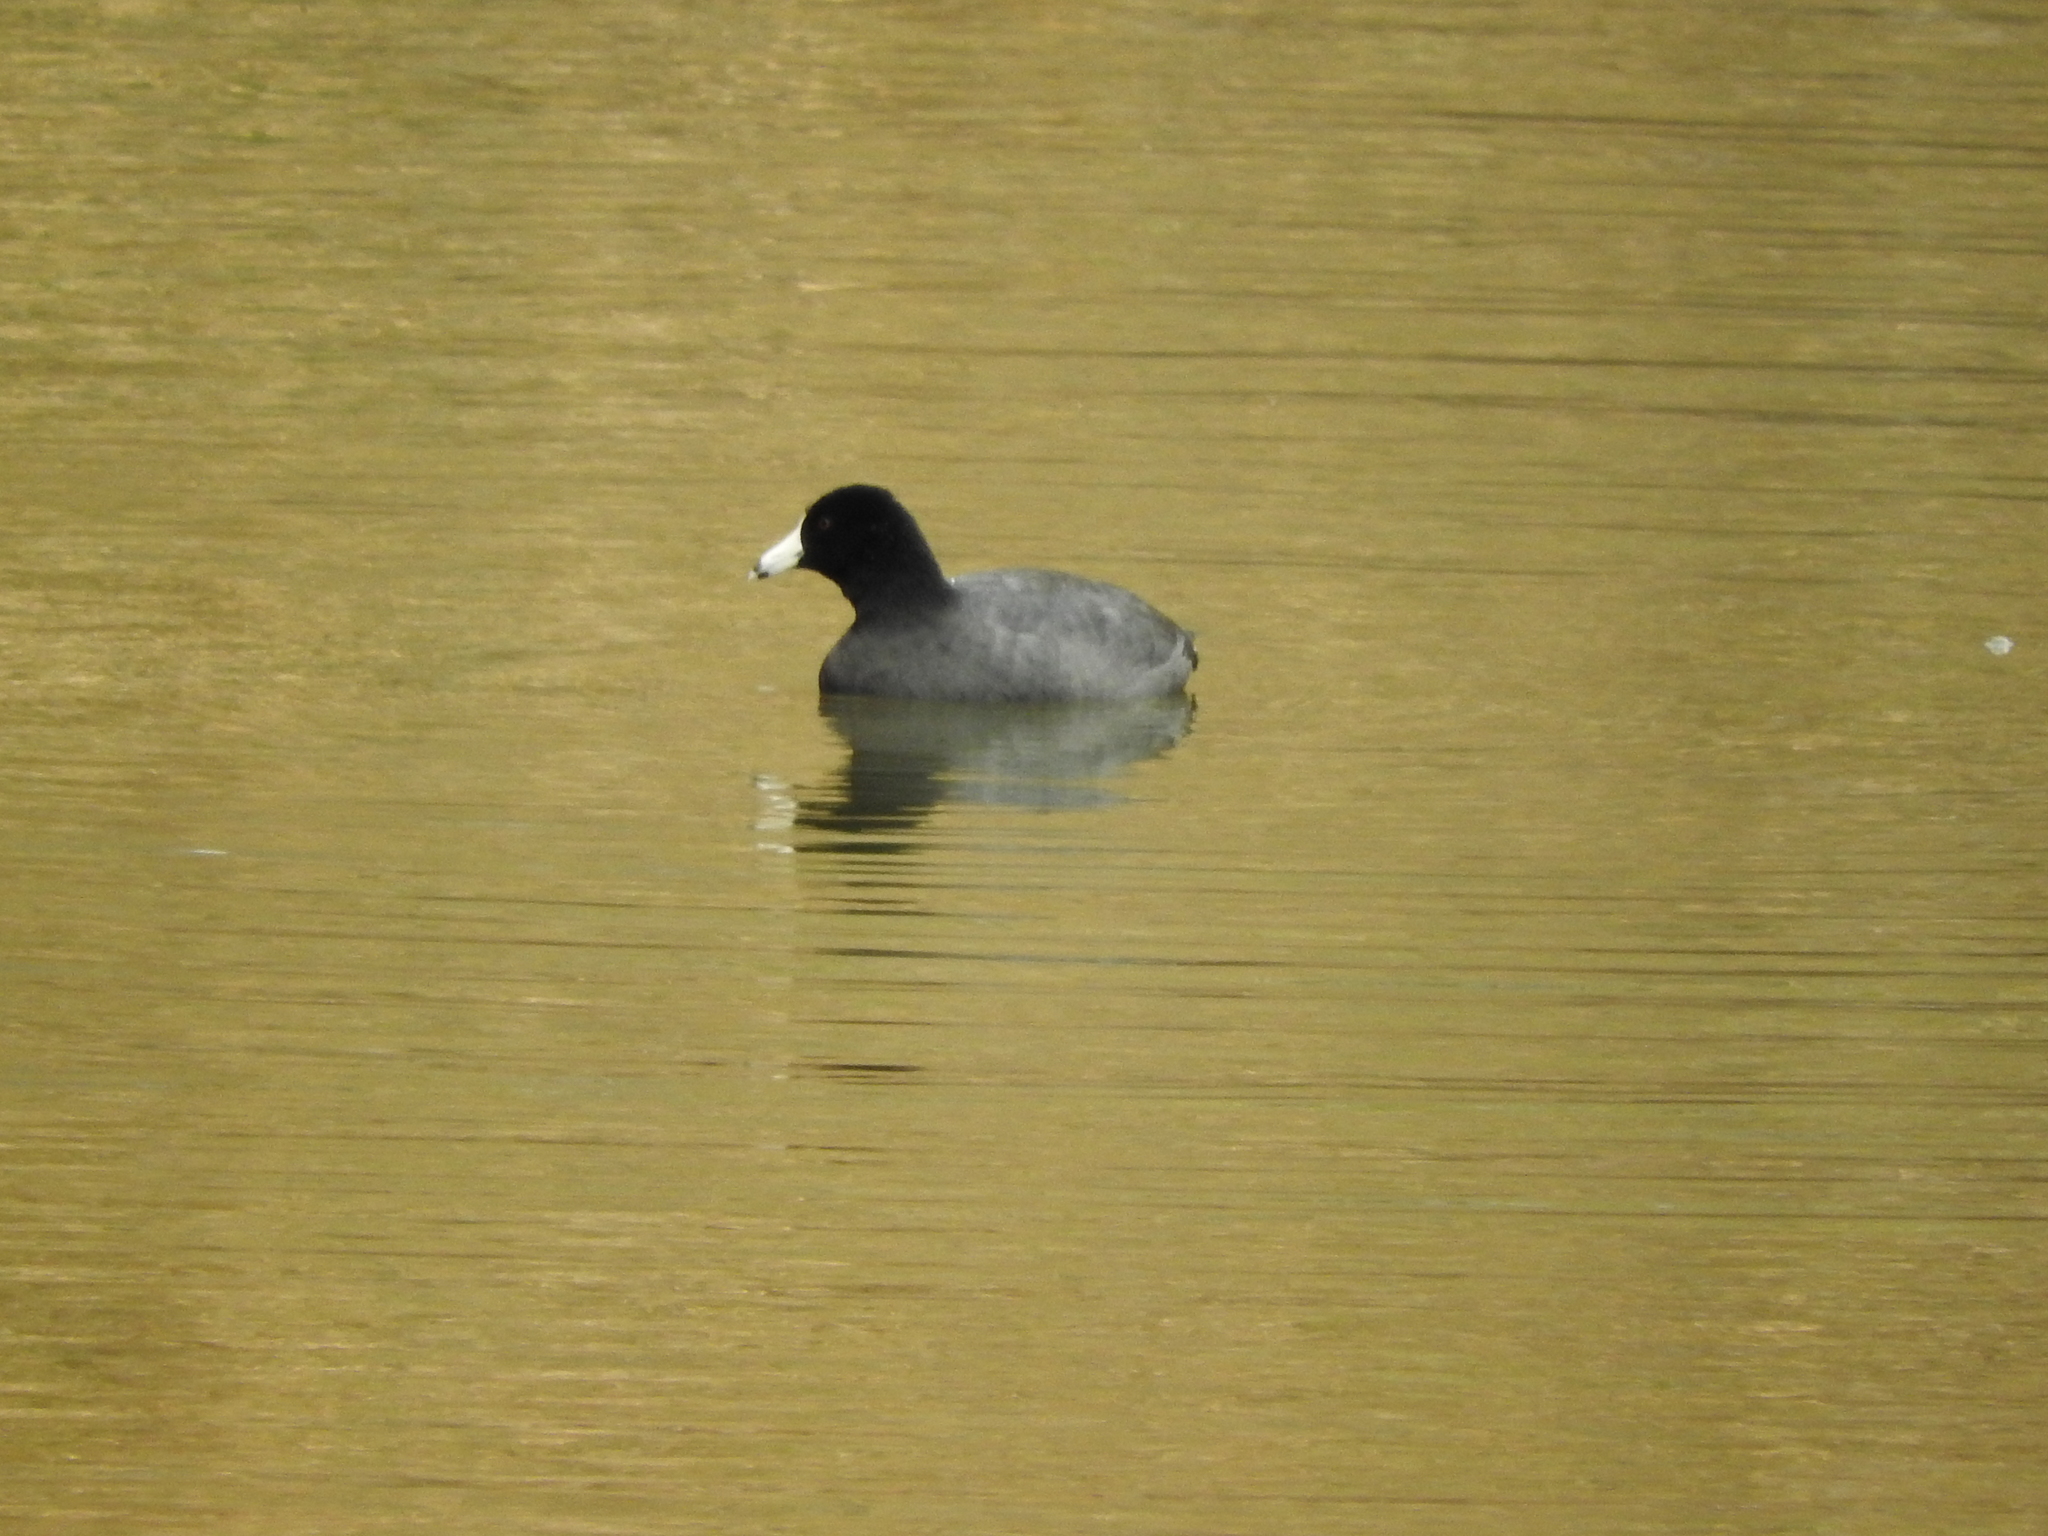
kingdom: Animalia
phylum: Chordata
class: Aves
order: Gruiformes
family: Rallidae
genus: Fulica
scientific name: Fulica americana
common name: American coot
